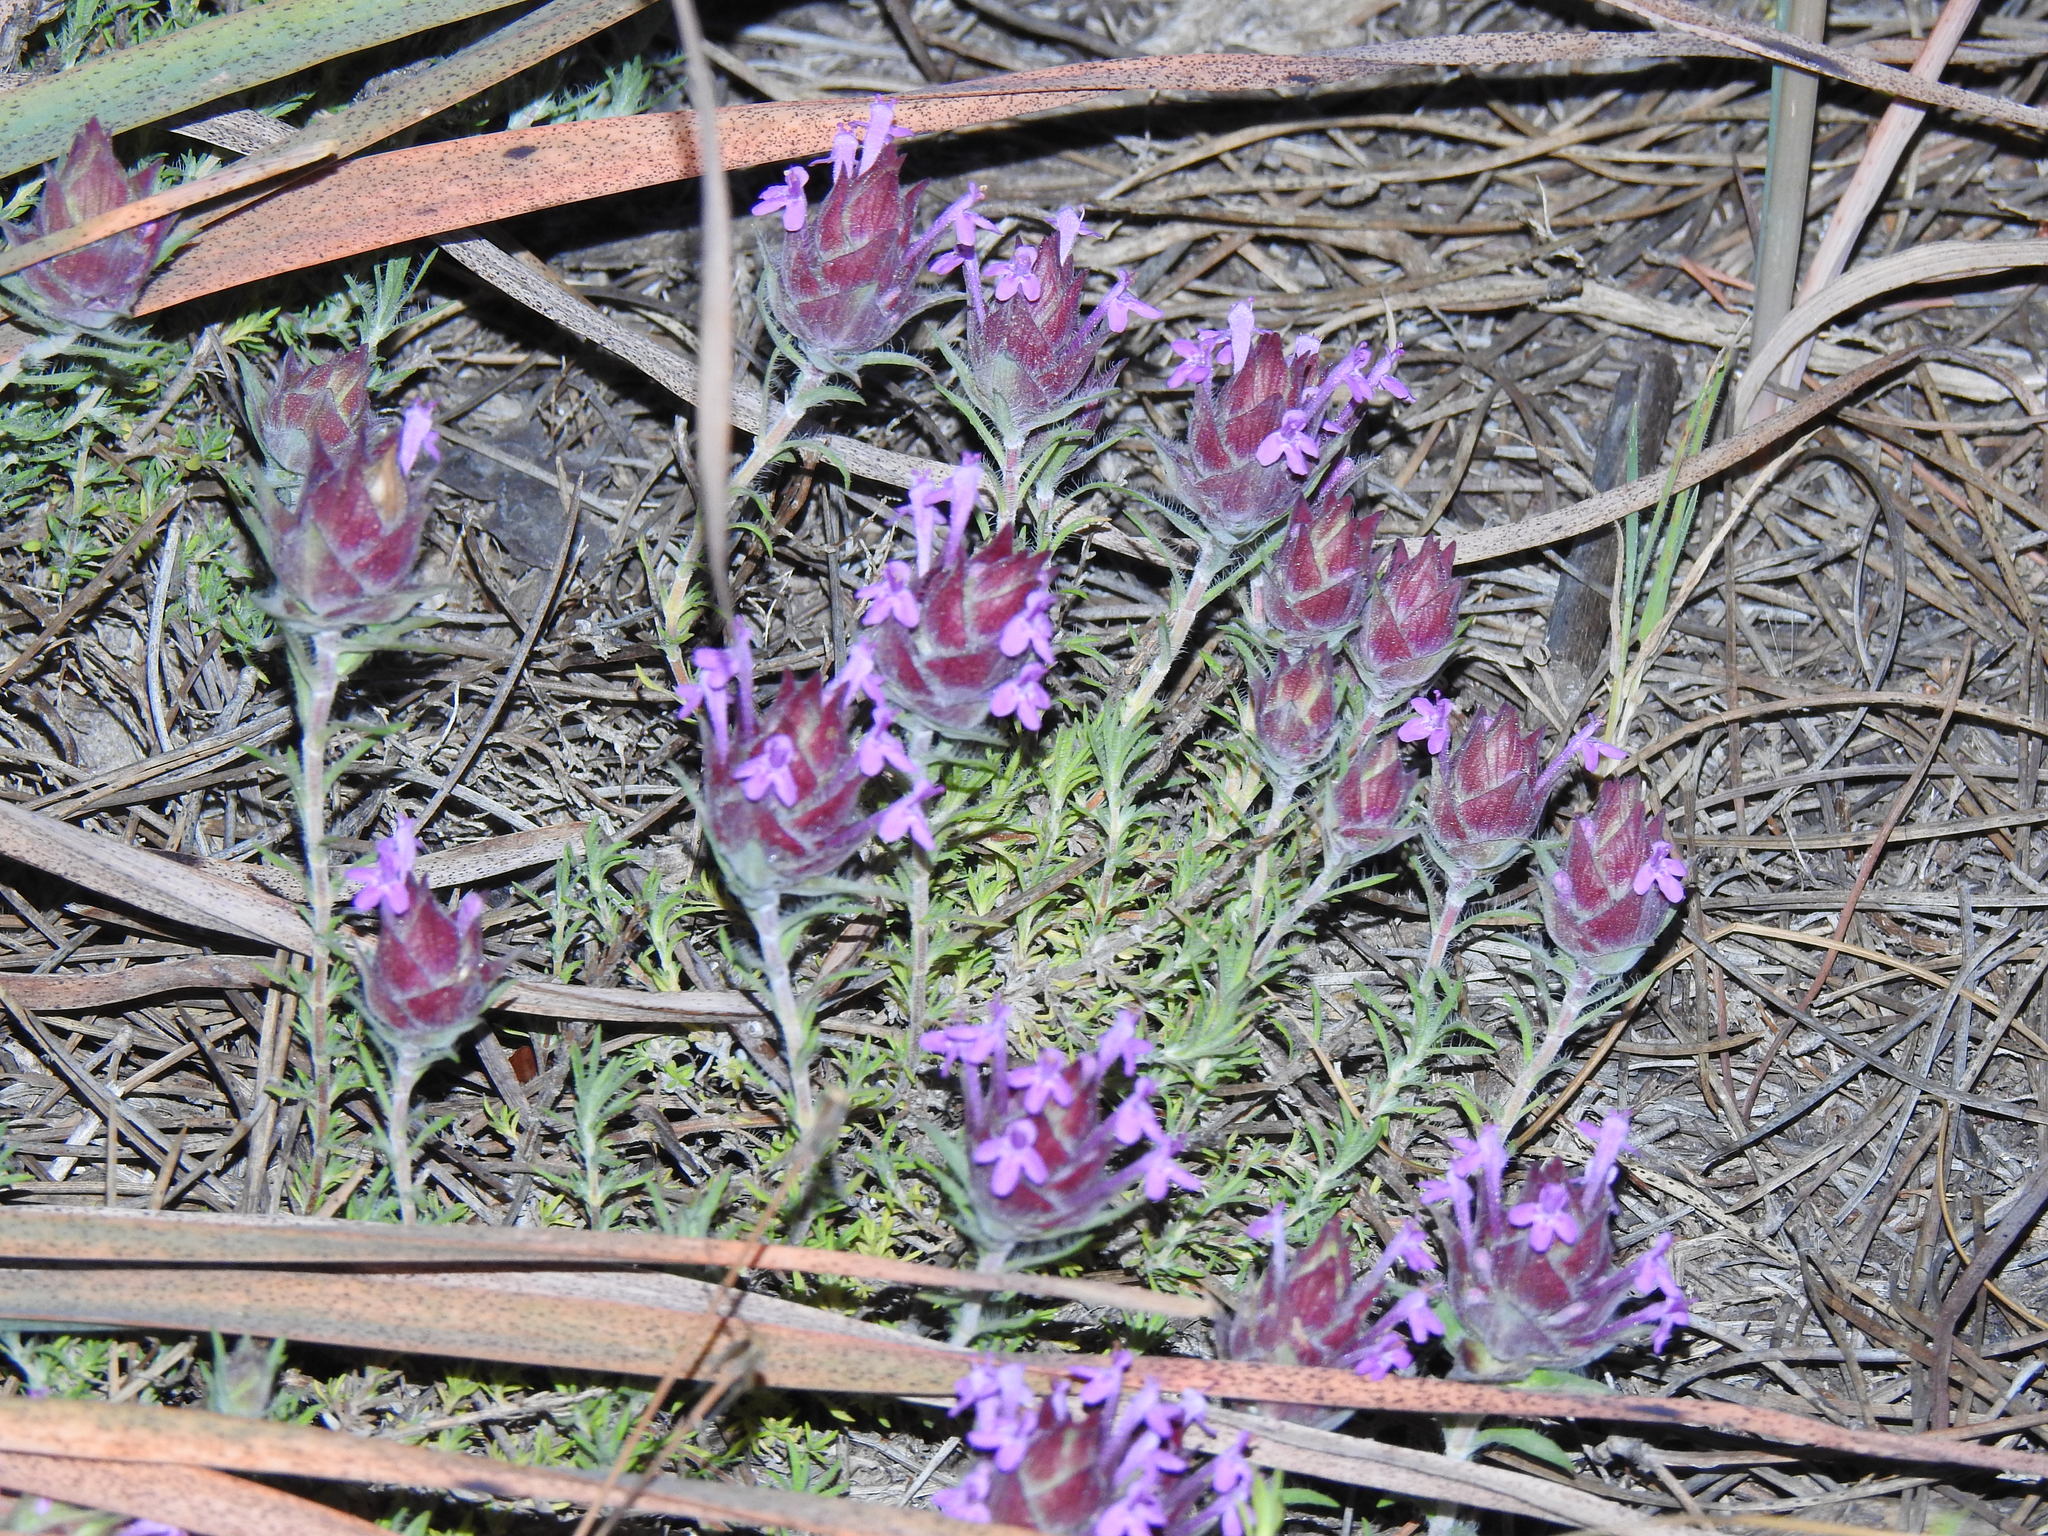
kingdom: Plantae
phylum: Tracheophyta
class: Magnoliopsida
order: Lamiales
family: Lamiaceae
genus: Thymus
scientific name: Thymus lotocephalus
